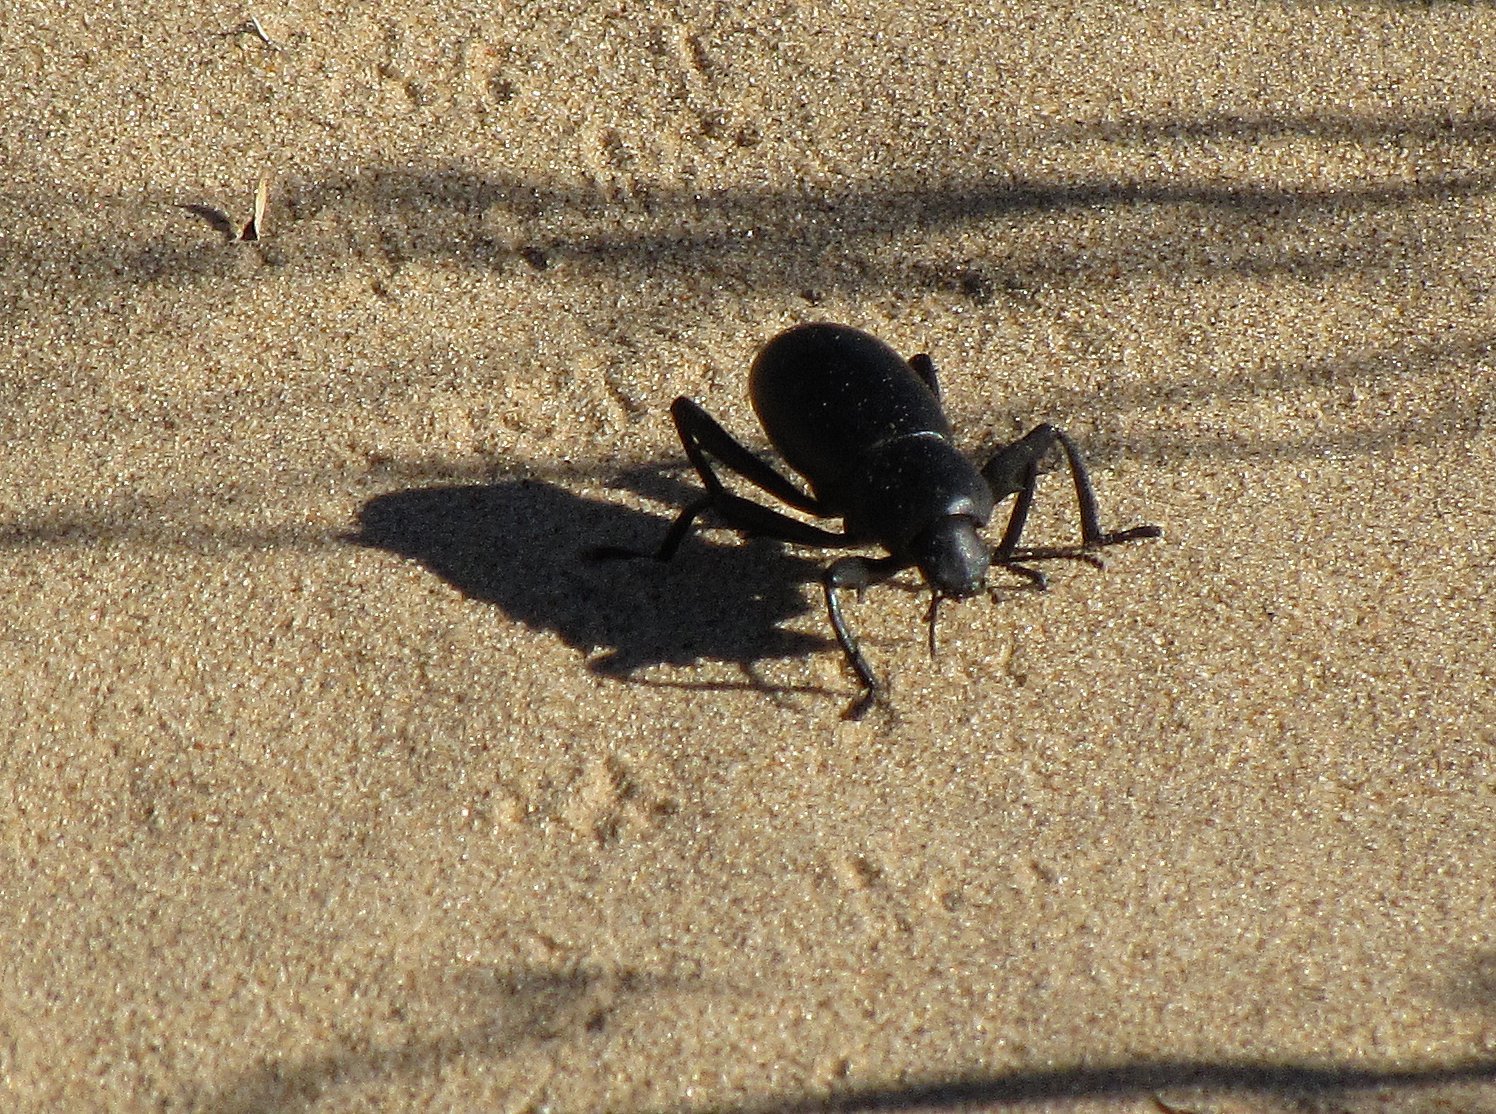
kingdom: Animalia
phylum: Arthropoda
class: Insecta
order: Coleoptera
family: Tenebrionidae
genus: Eleodes
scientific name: Eleodes armata
